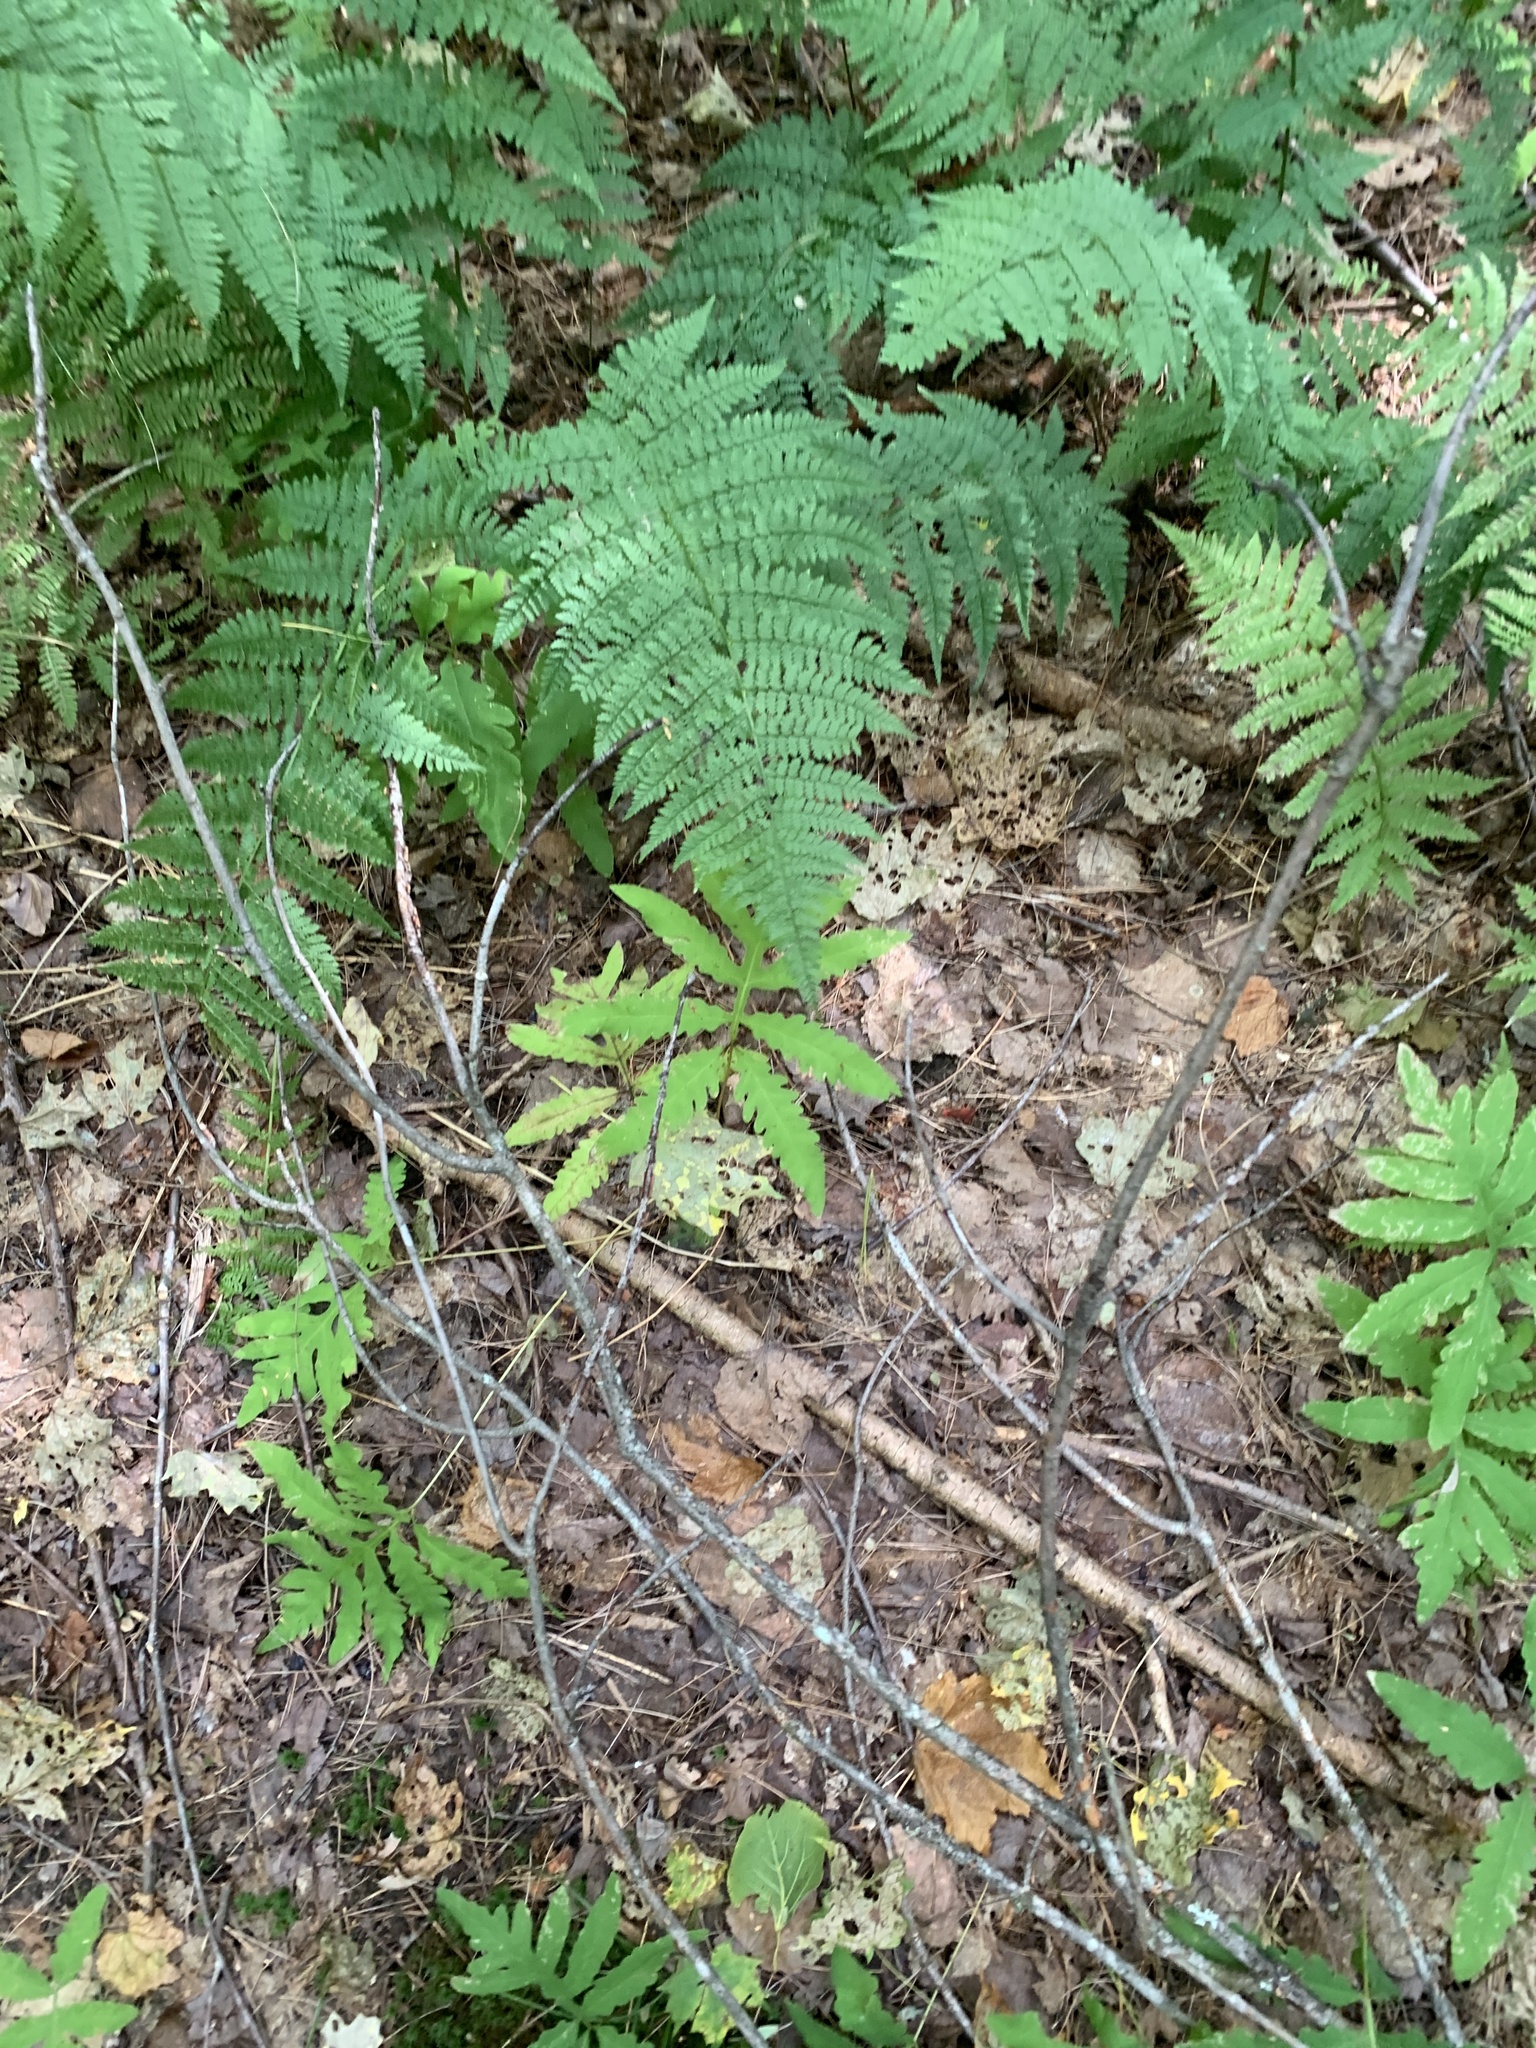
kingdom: Plantae
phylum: Tracheophyta
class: Polypodiopsida
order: Polypodiales
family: Onocleaceae
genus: Onoclea
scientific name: Onoclea sensibilis
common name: Sensitive fern
